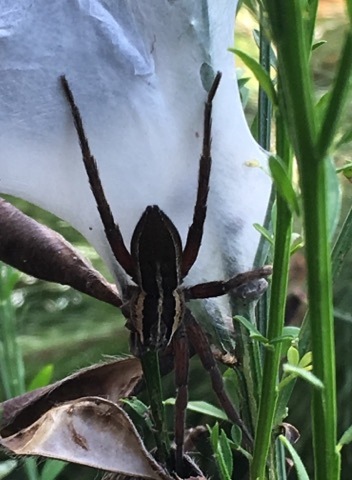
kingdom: Animalia
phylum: Arthropoda
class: Arachnida
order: Araneae
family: Pisauridae
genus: Dolomedes
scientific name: Dolomedes minor
